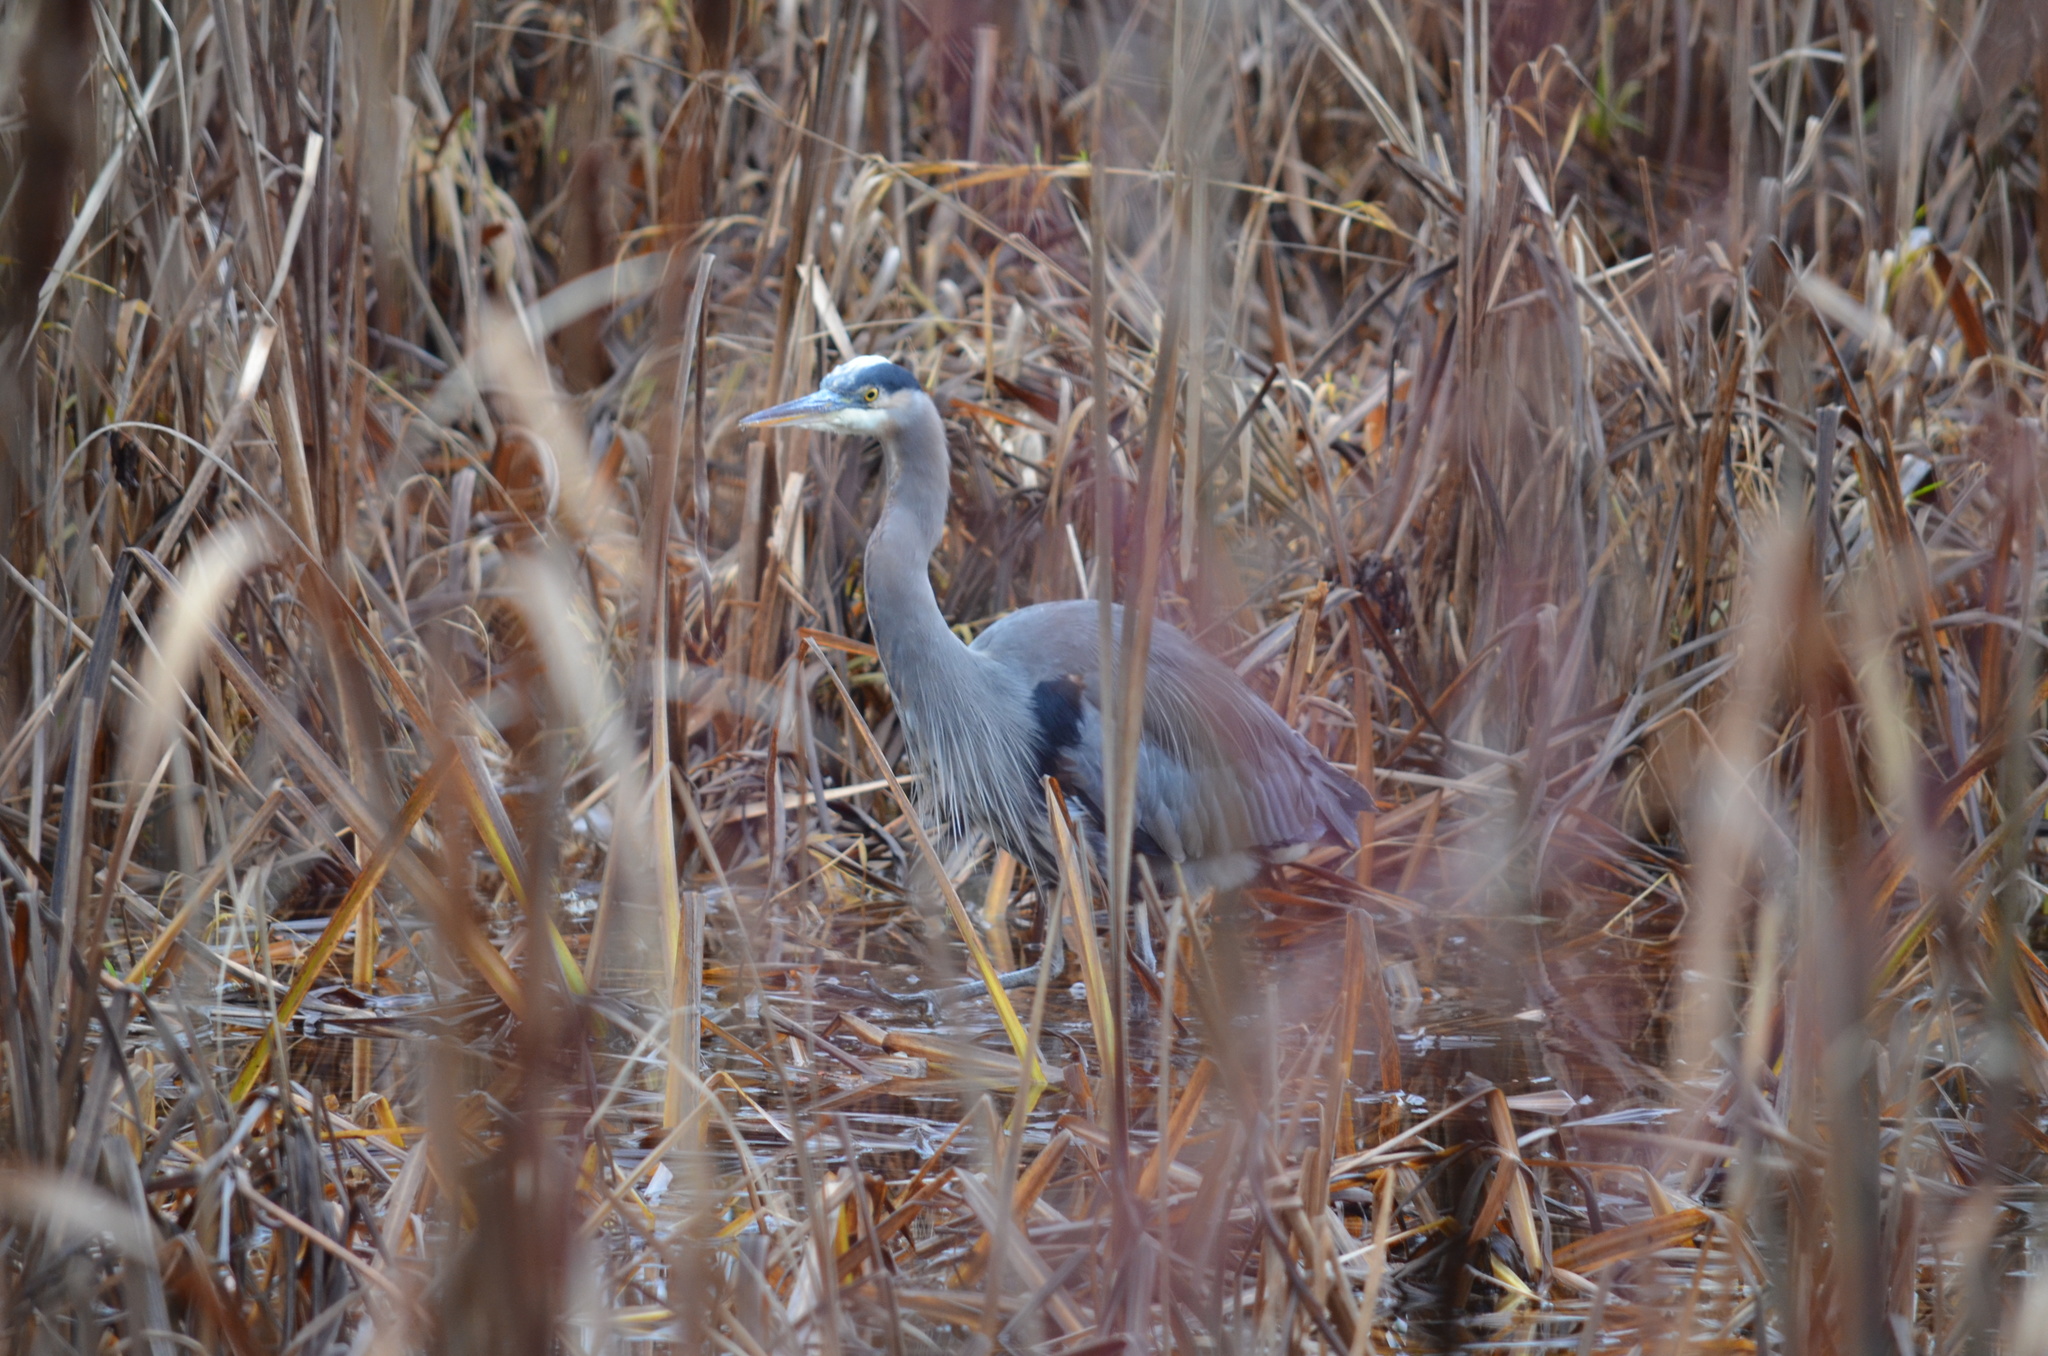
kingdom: Animalia
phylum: Chordata
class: Aves
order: Pelecaniformes
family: Ardeidae
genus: Ardea
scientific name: Ardea herodias
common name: Great blue heron
